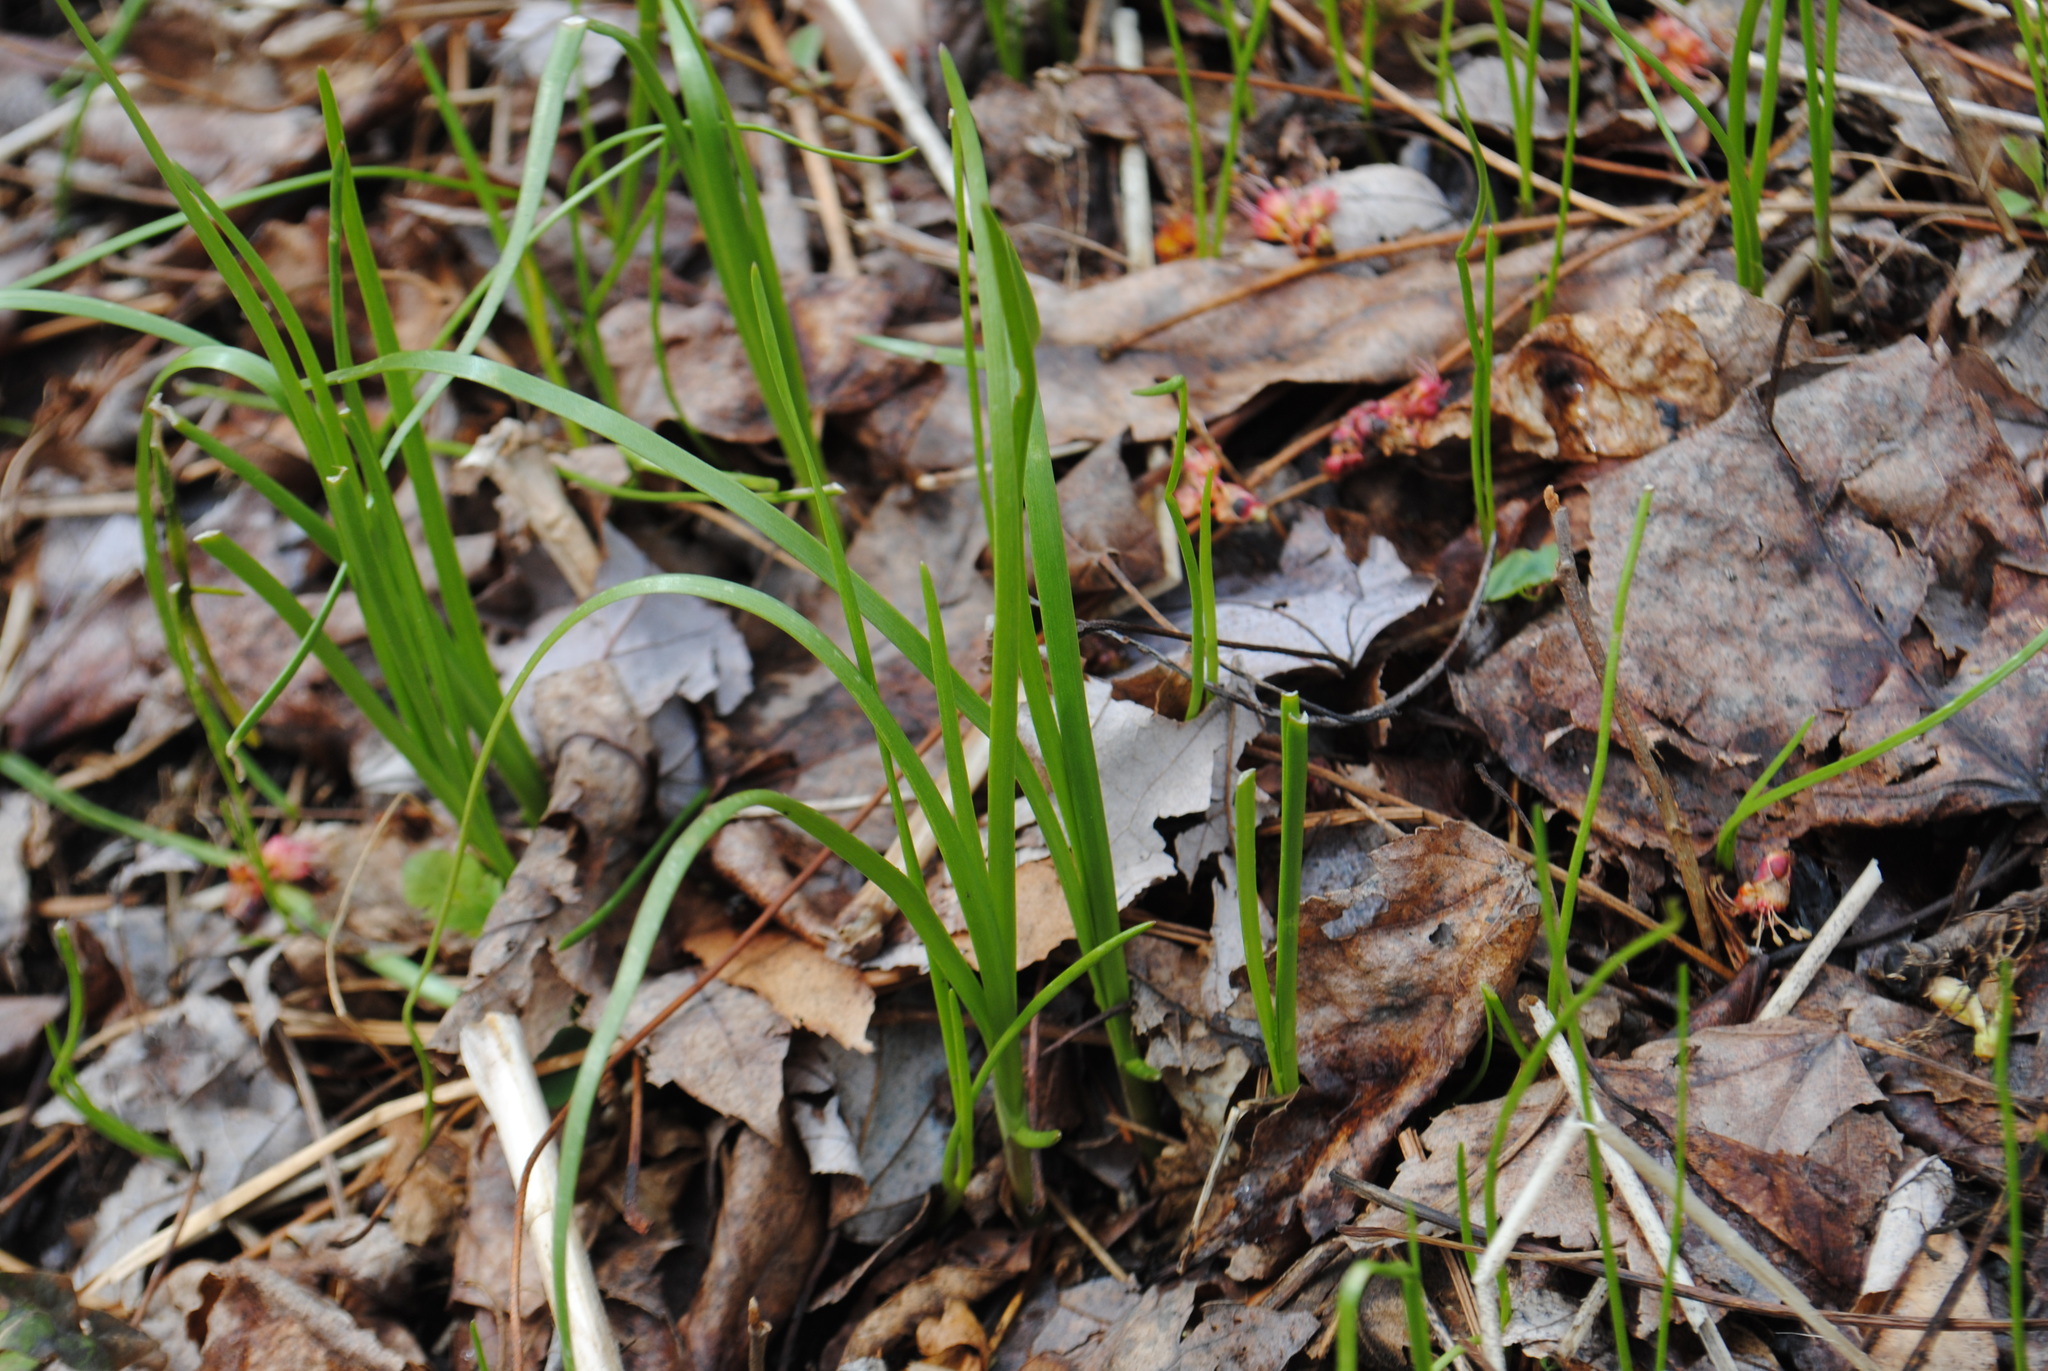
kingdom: Plantae
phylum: Tracheophyta
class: Liliopsida
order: Asparagales
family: Amaryllidaceae
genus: Allium
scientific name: Allium canadense
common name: Meadow garlic
